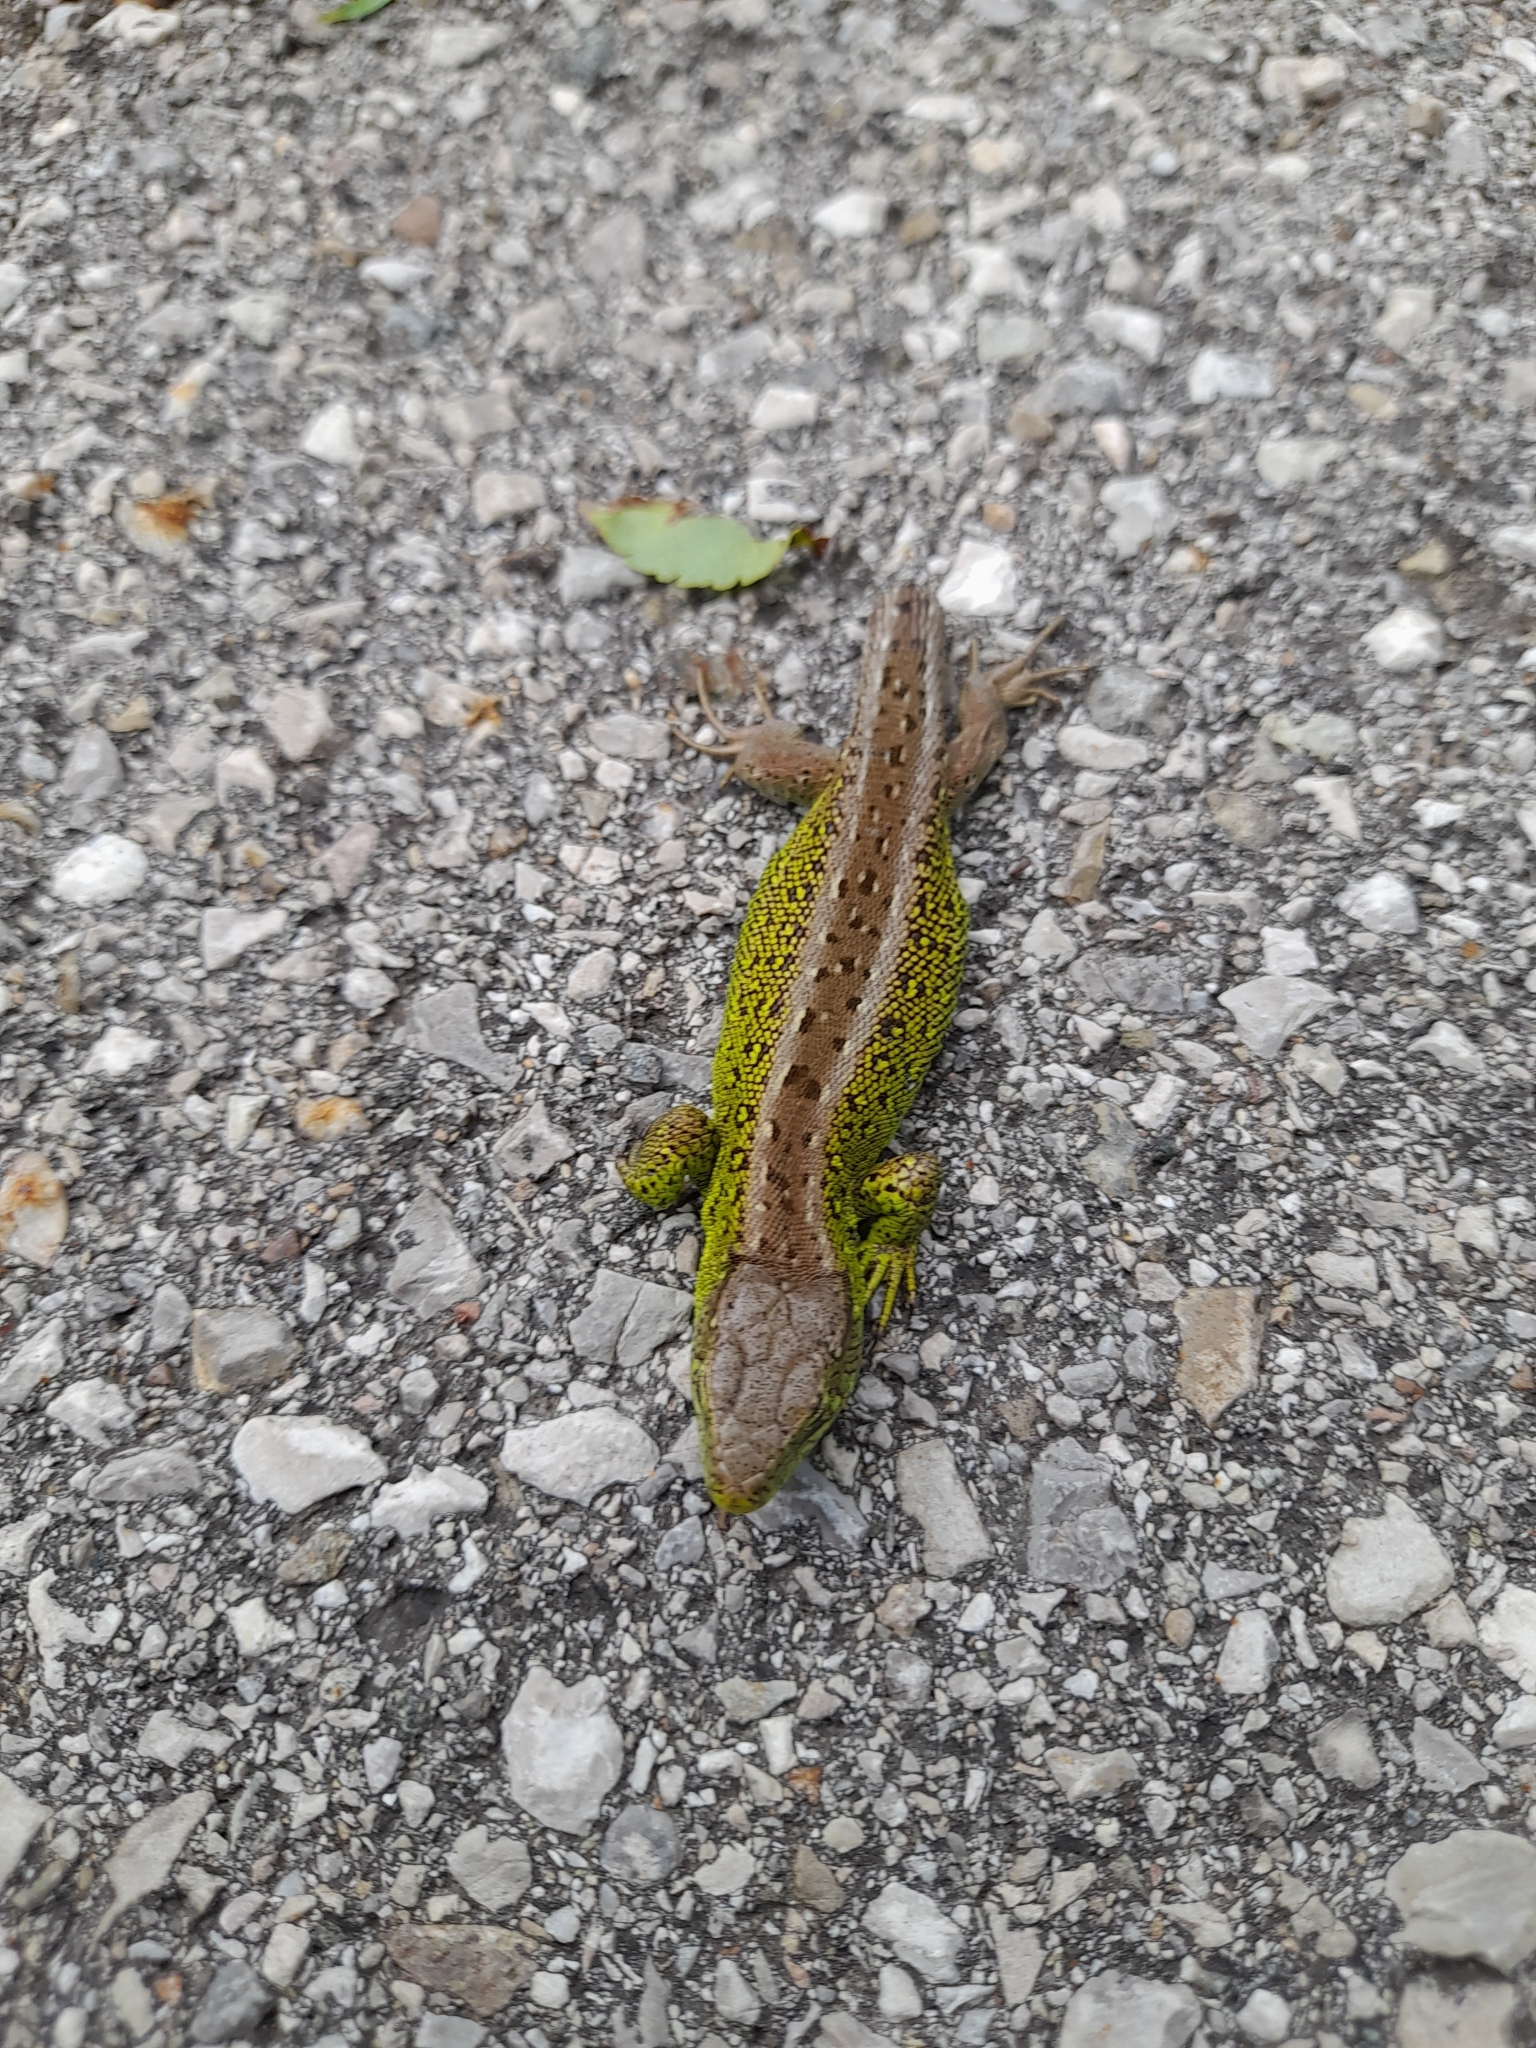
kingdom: Animalia
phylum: Chordata
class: Squamata
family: Lacertidae
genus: Lacerta
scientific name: Lacerta agilis
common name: Sand lizard
